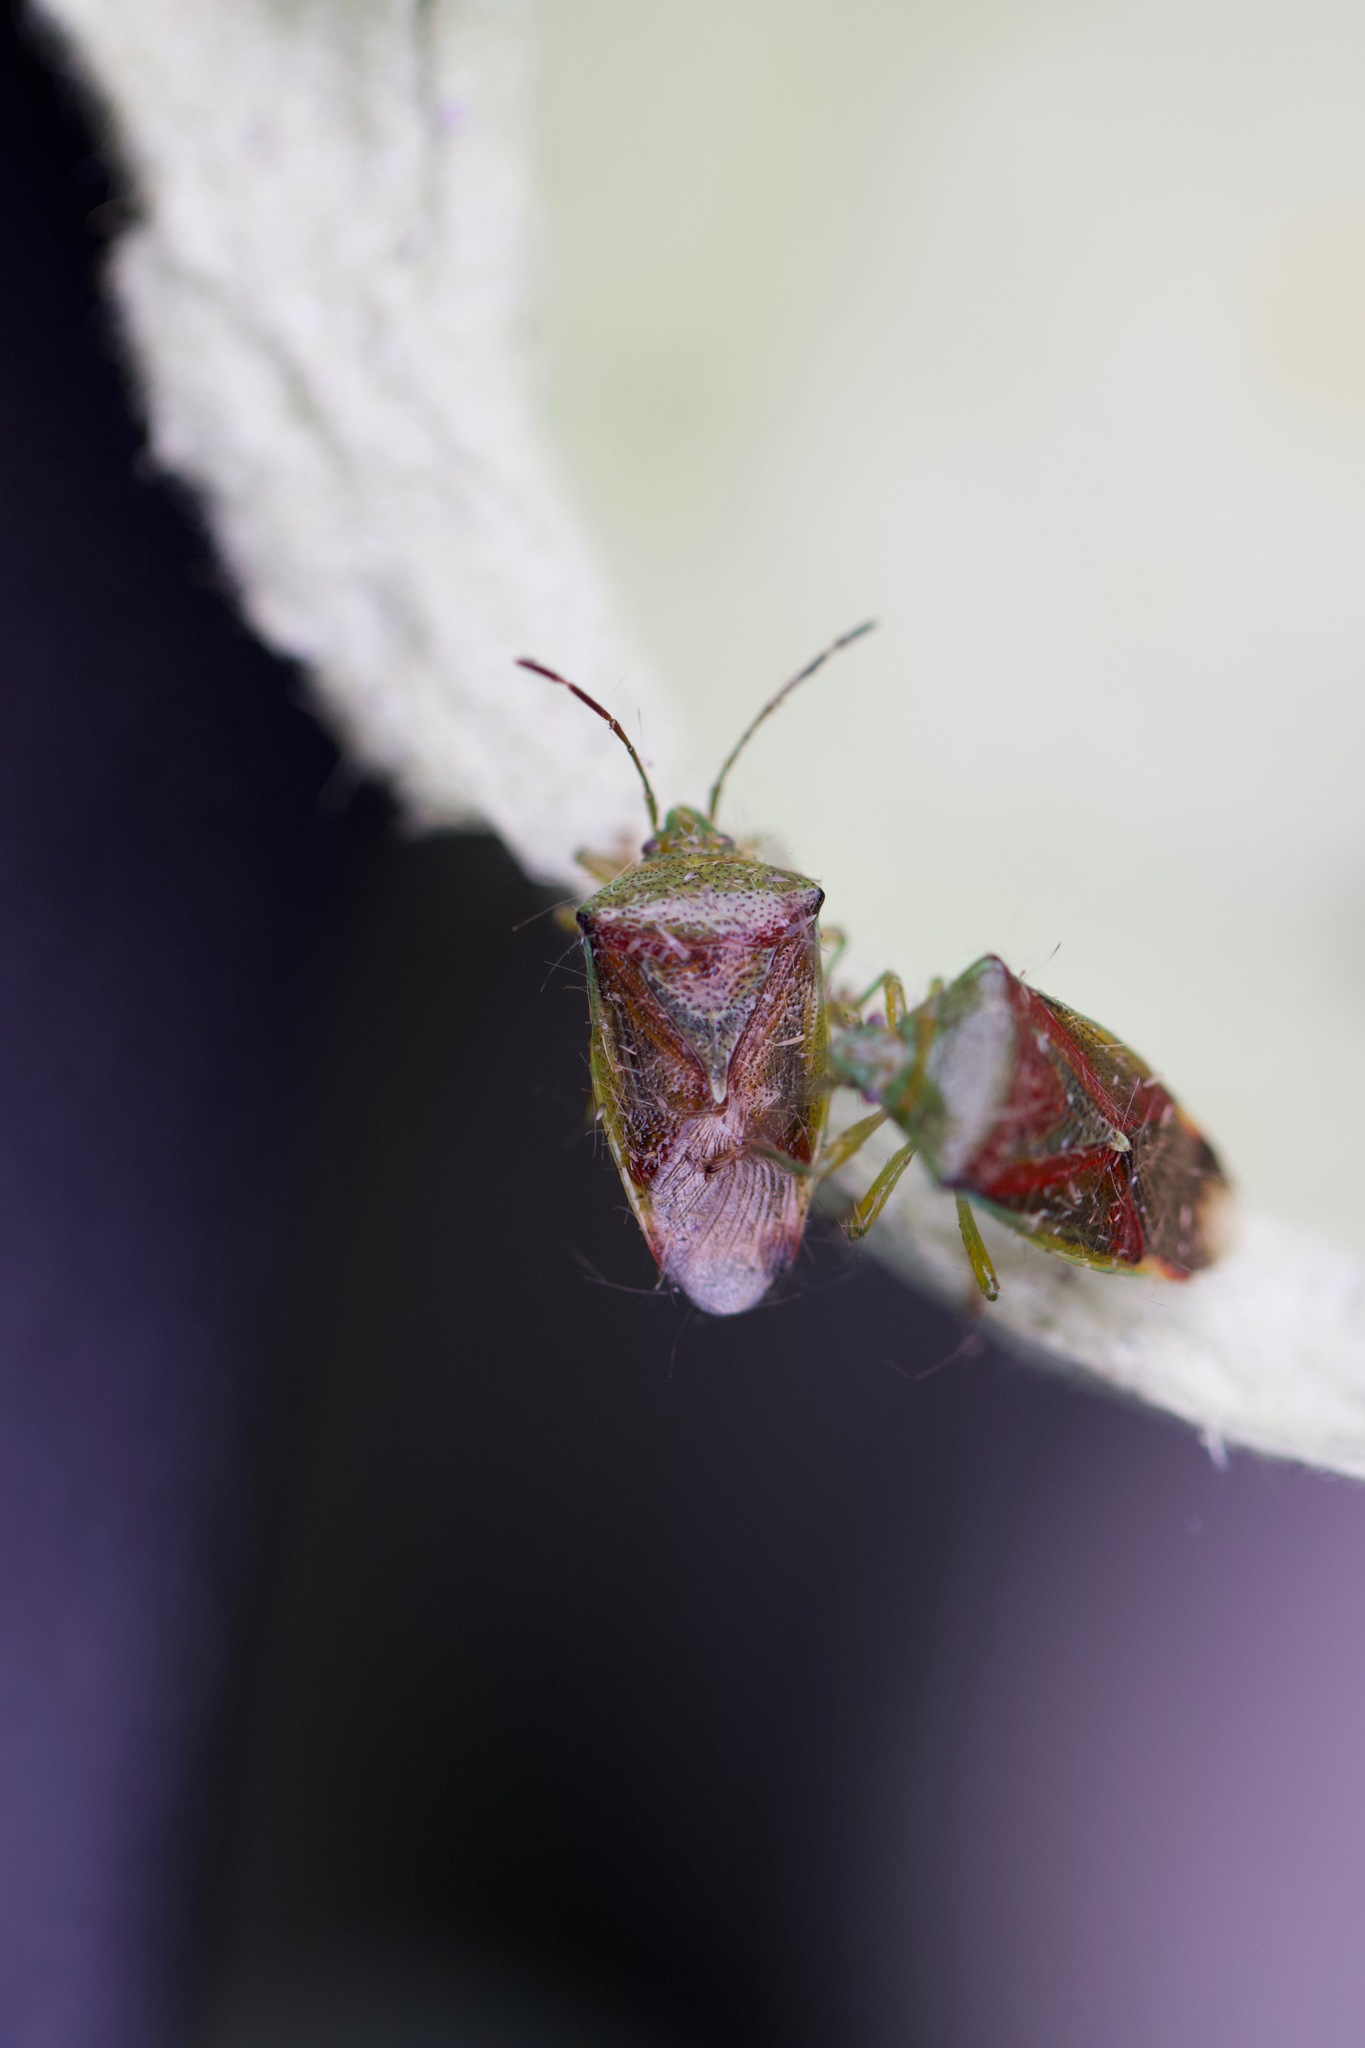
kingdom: Animalia
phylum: Arthropoda
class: Insecta
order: Hemiptera
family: Acanthosomatidae
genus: Elasmostethus
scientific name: Elasmostethus interstinctus
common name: Birch shieldbug
